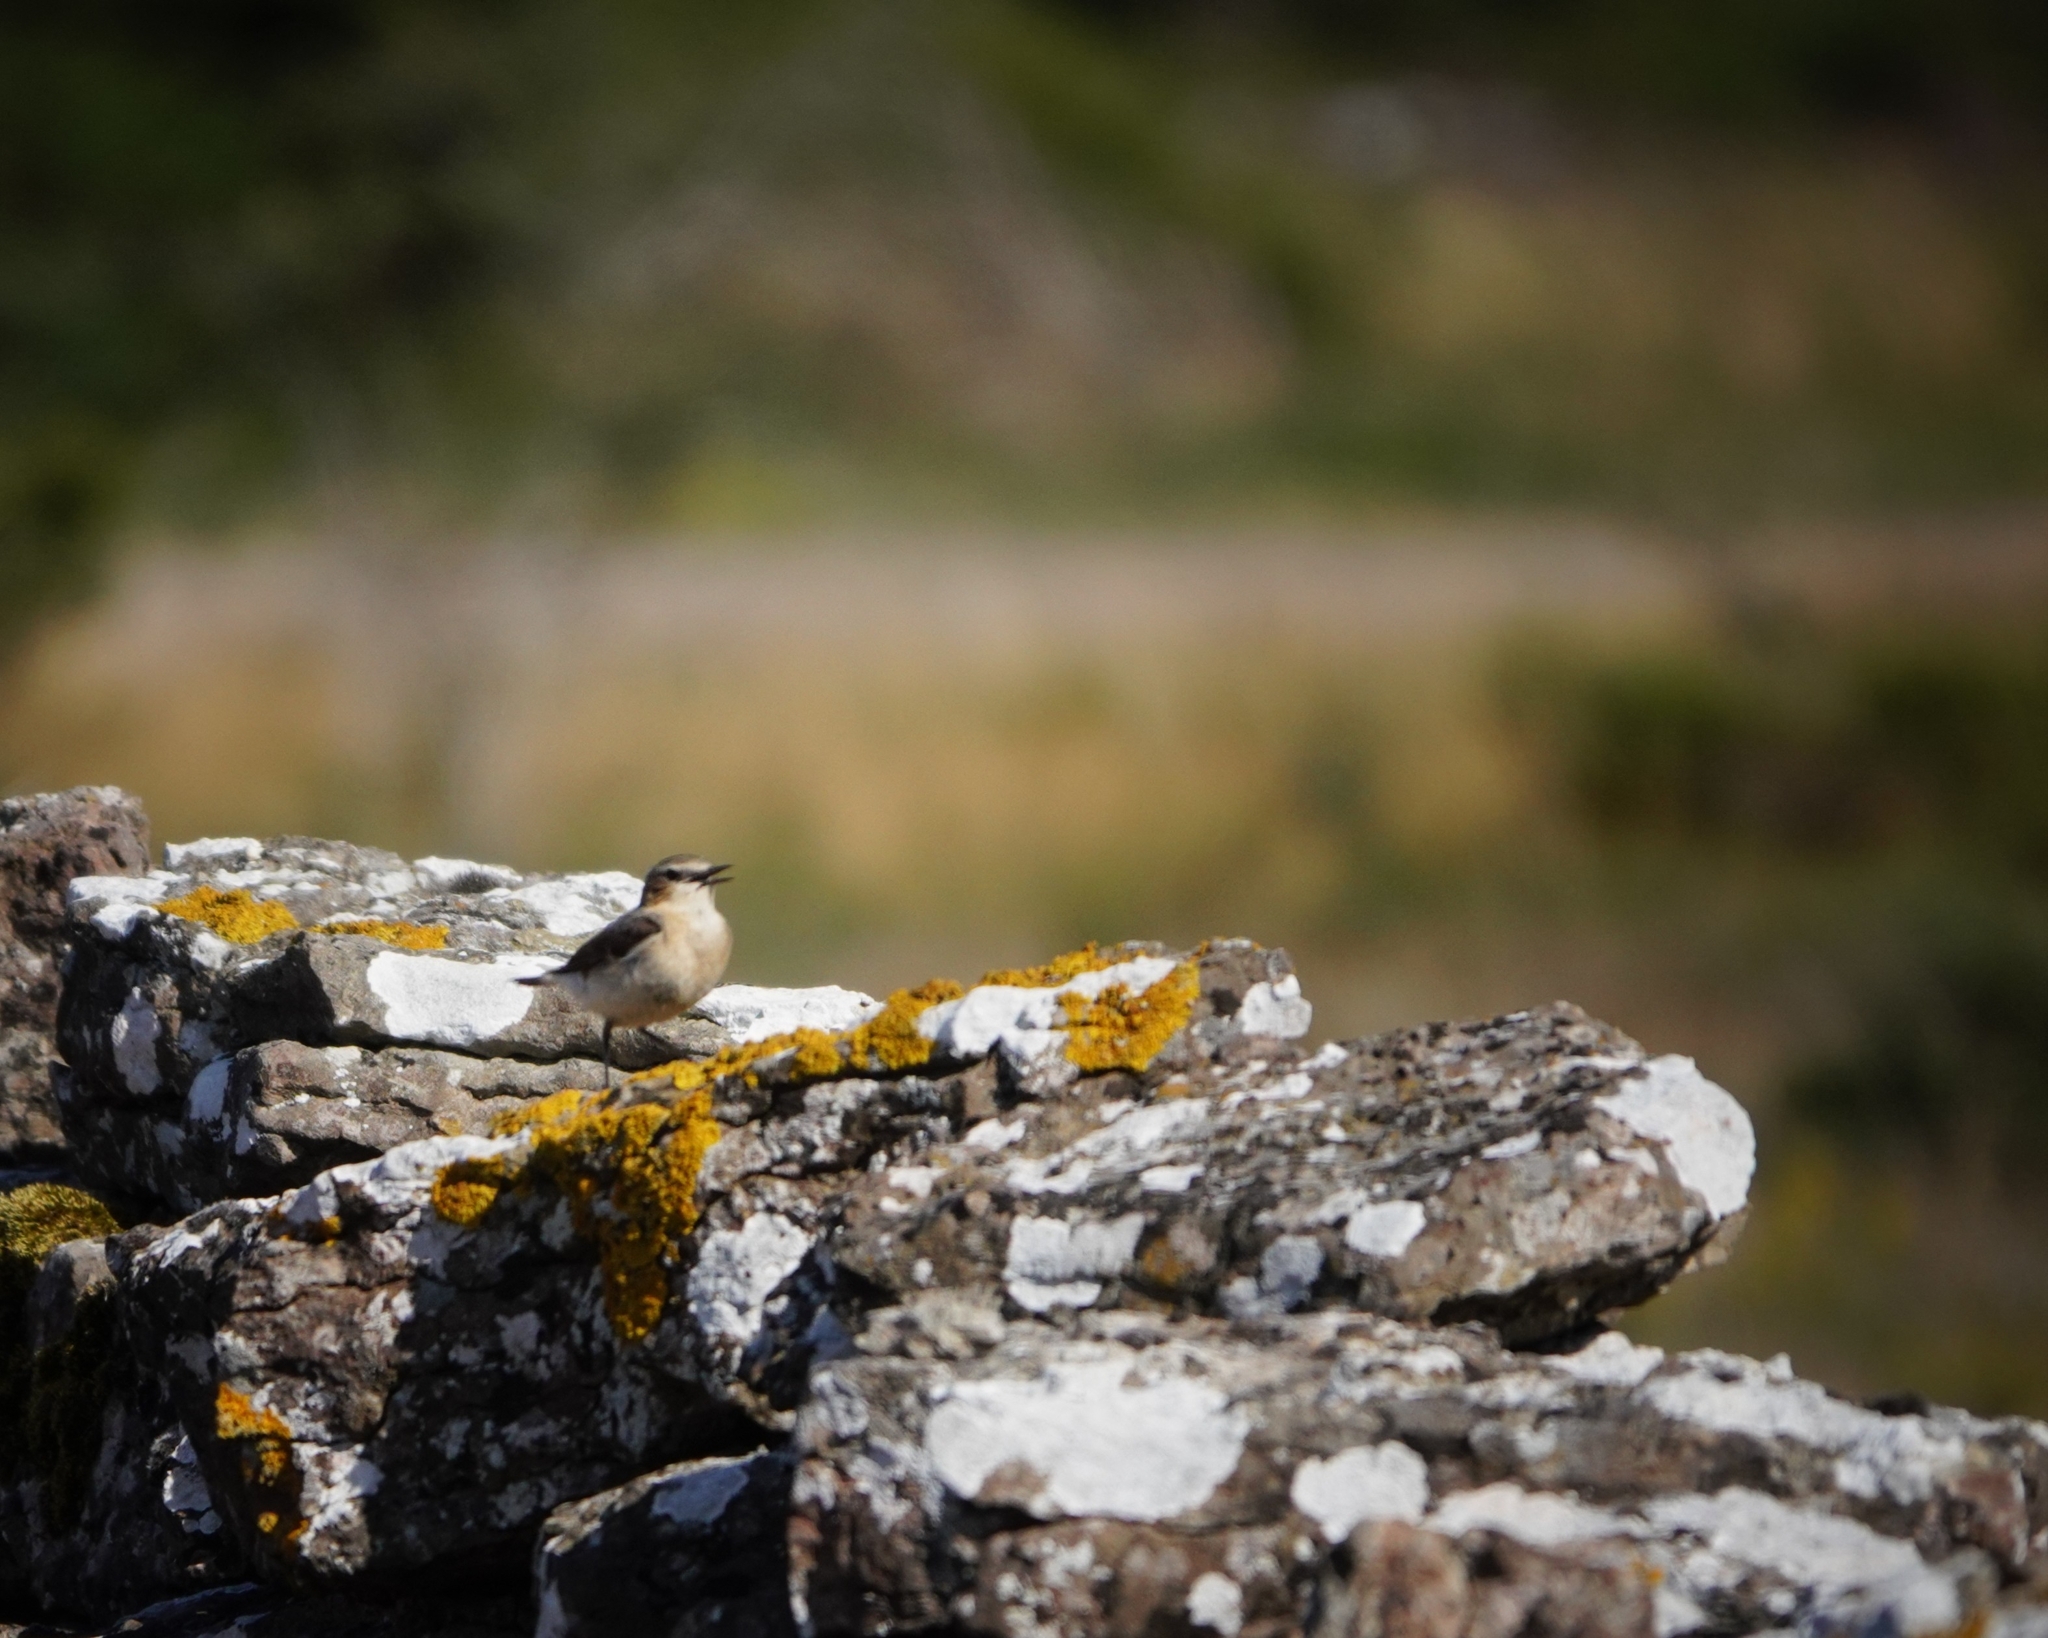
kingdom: Animalia
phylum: Chordata
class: Aves
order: Passeriformes
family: Muscicapidae
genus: Oenanthe
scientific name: Oenanthe oenanthe
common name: Northern wheatear
